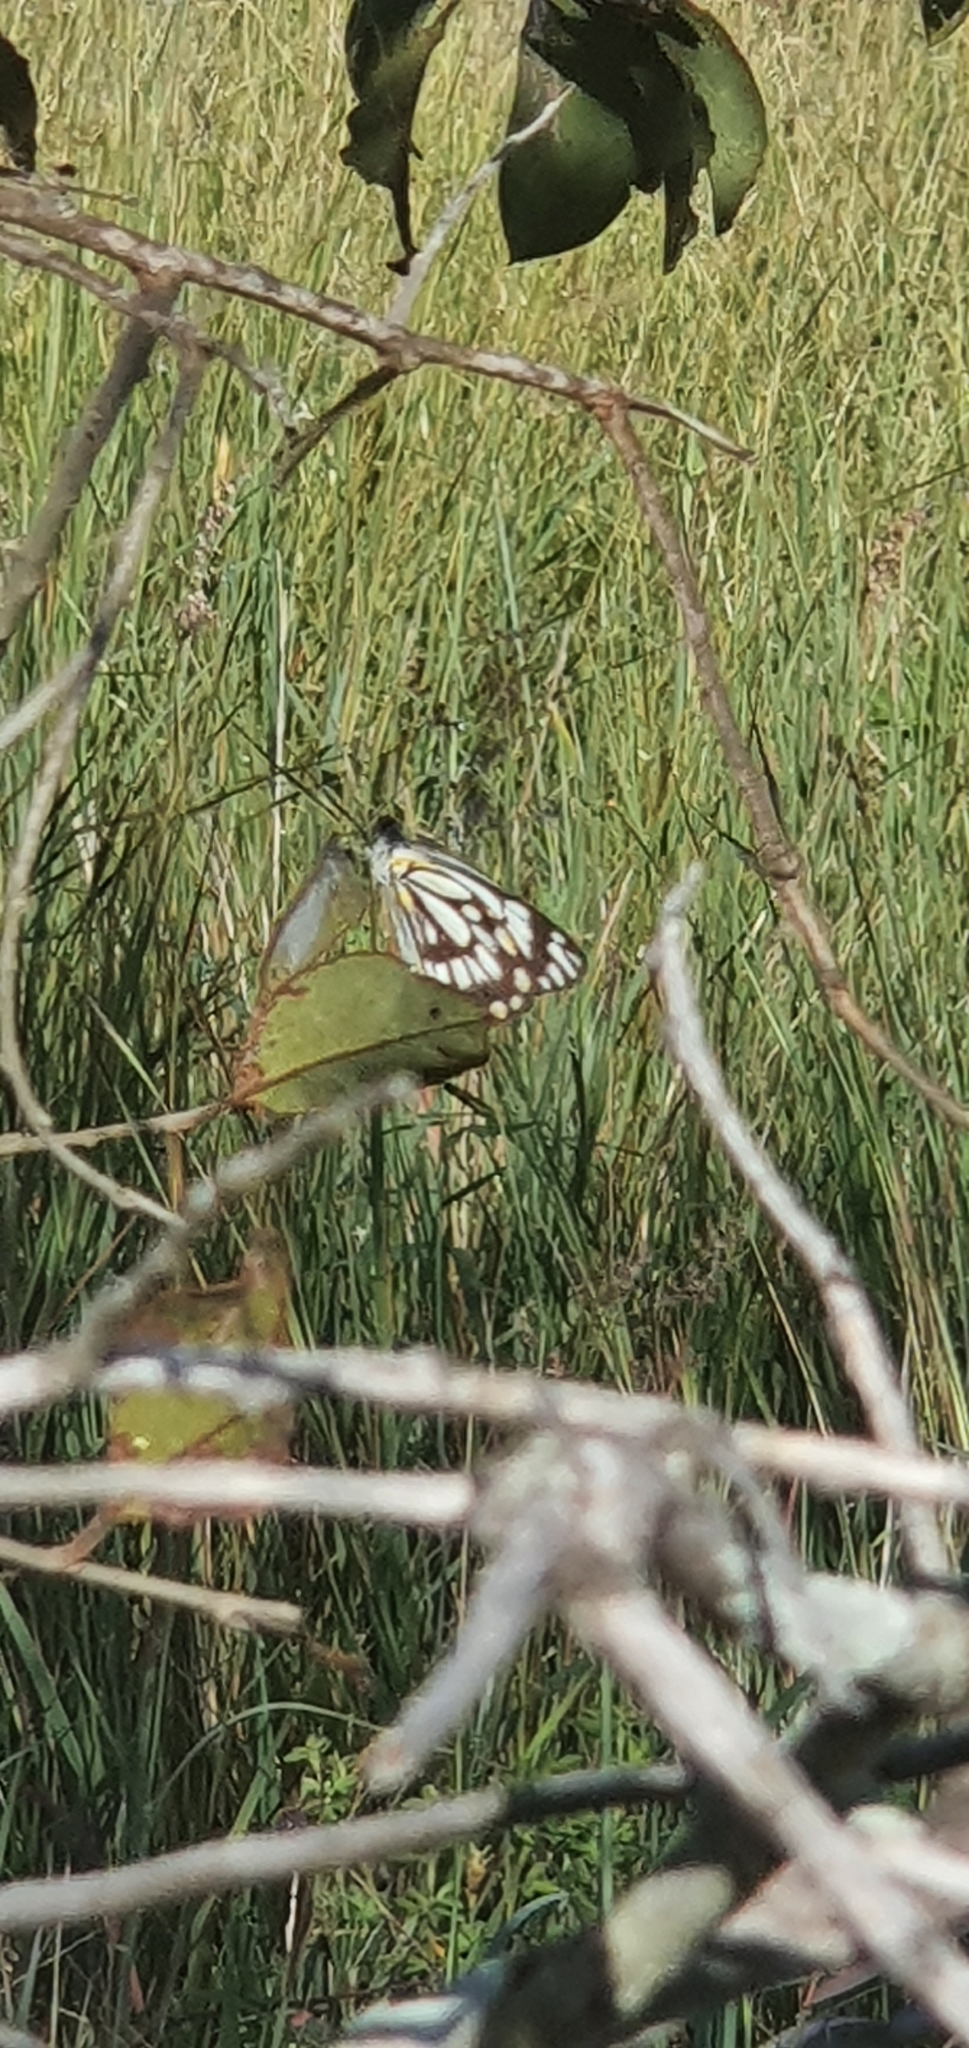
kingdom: Animalia
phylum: Arthropoda
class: Insecta
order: Lepidoptera
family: Pieridae
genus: Belenois
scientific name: Belenois java
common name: Caper white
